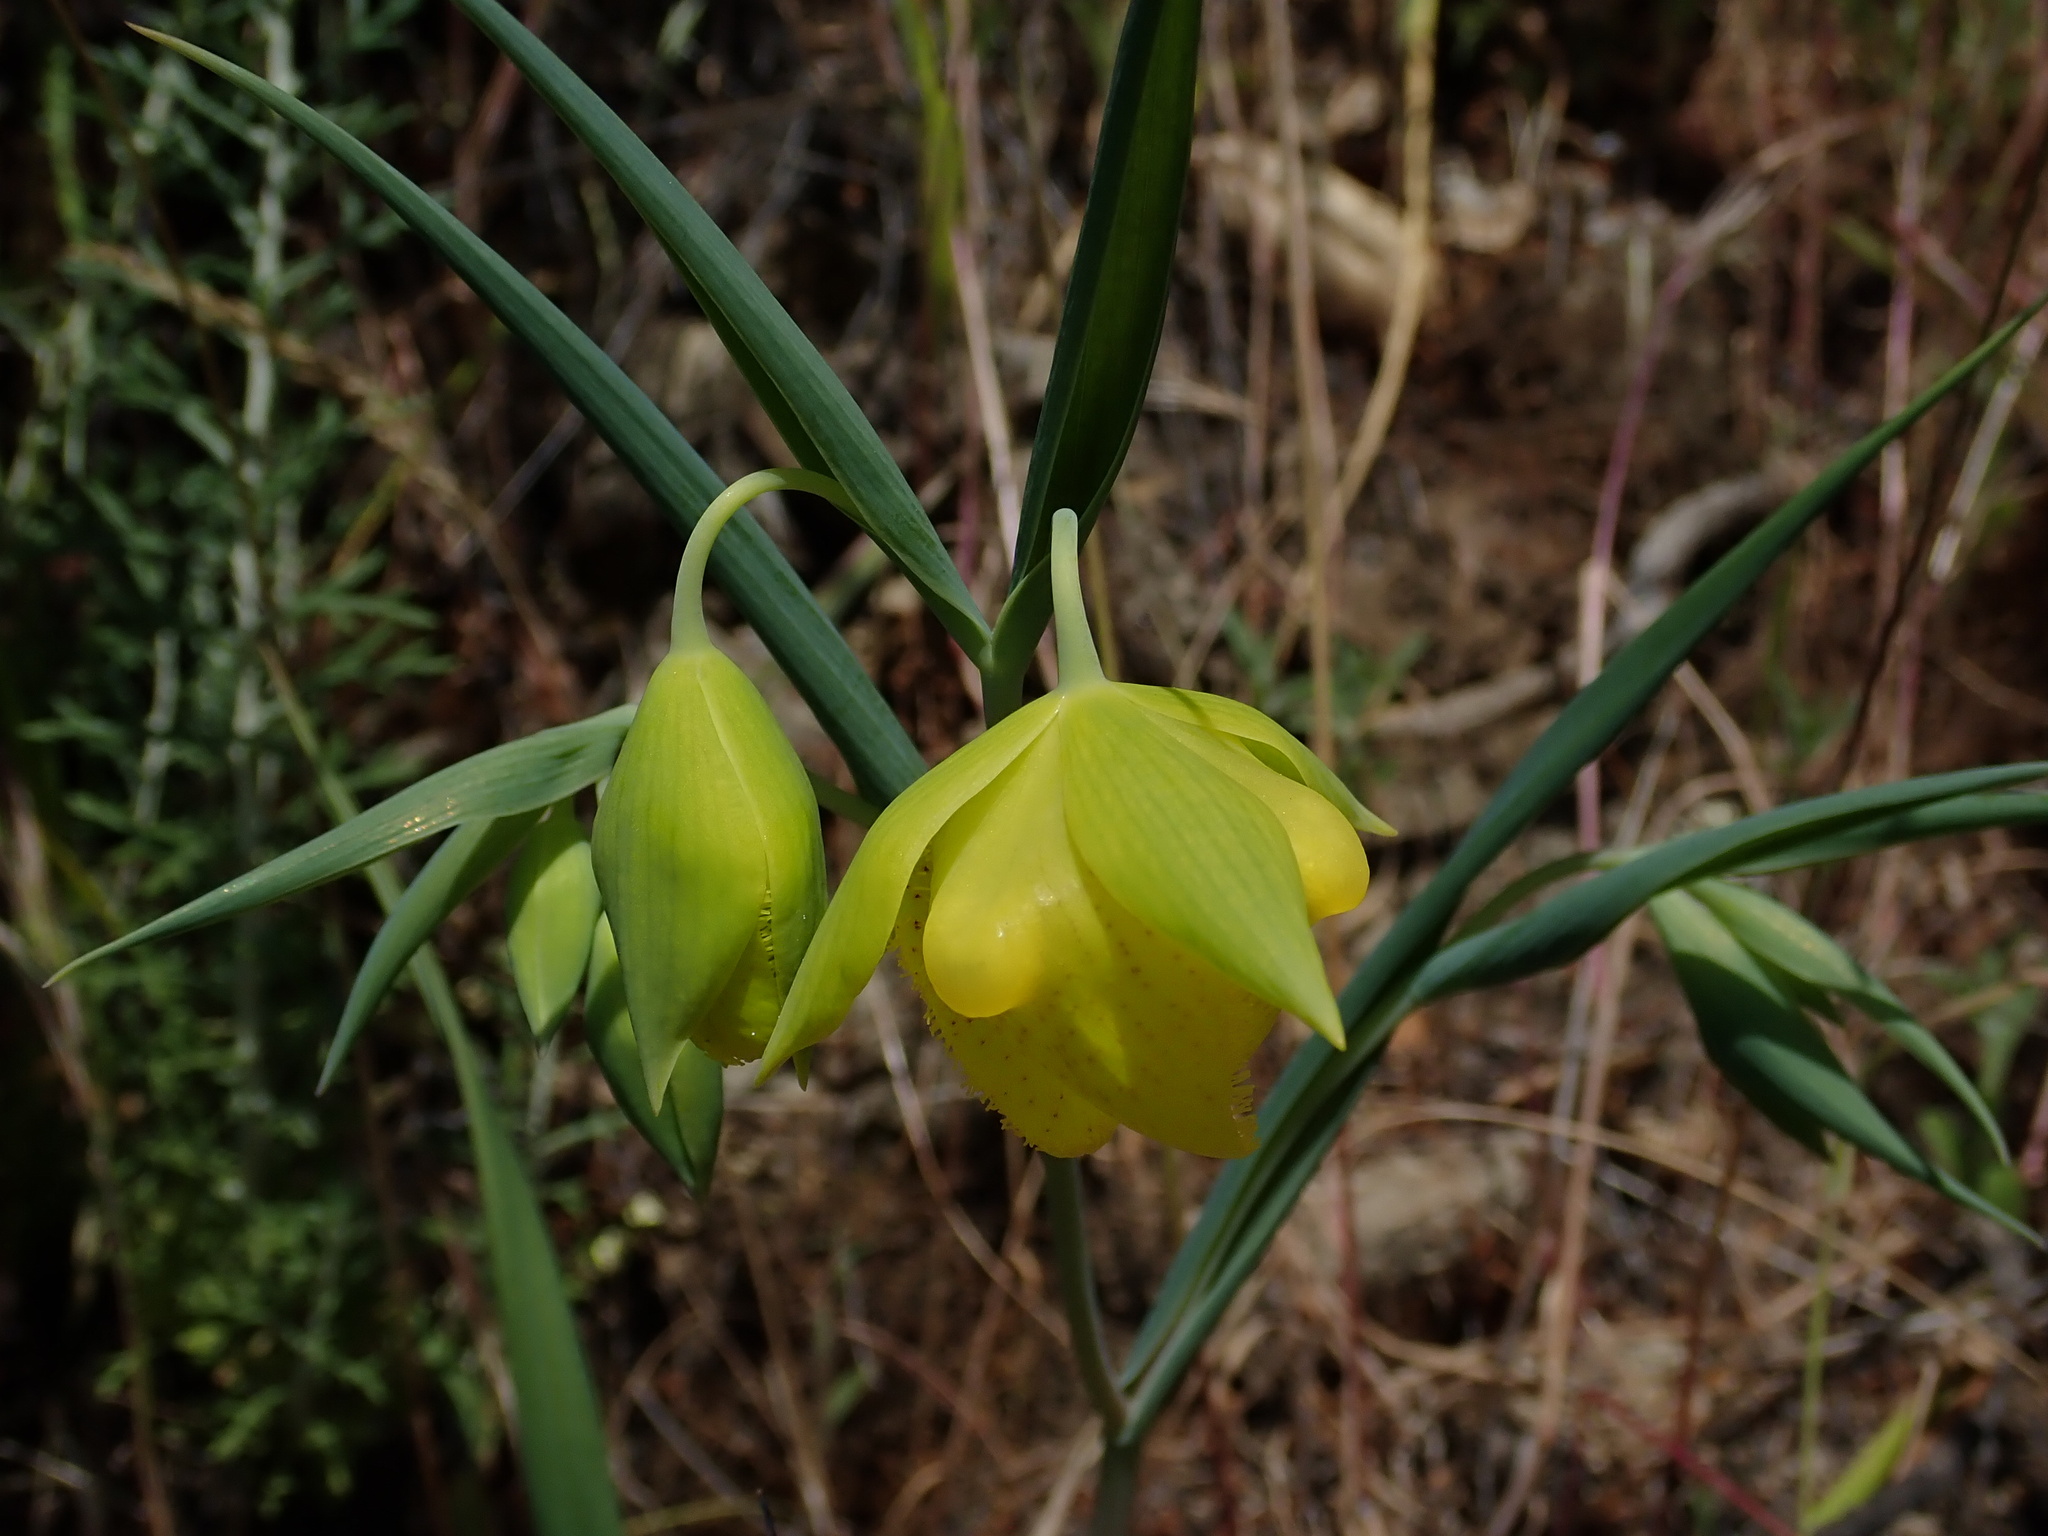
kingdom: Plantae
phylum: Tracheophyta
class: Liliopsida
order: Liliales
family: Liliaceae
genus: Calochortus
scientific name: Calochortus pulchellus
